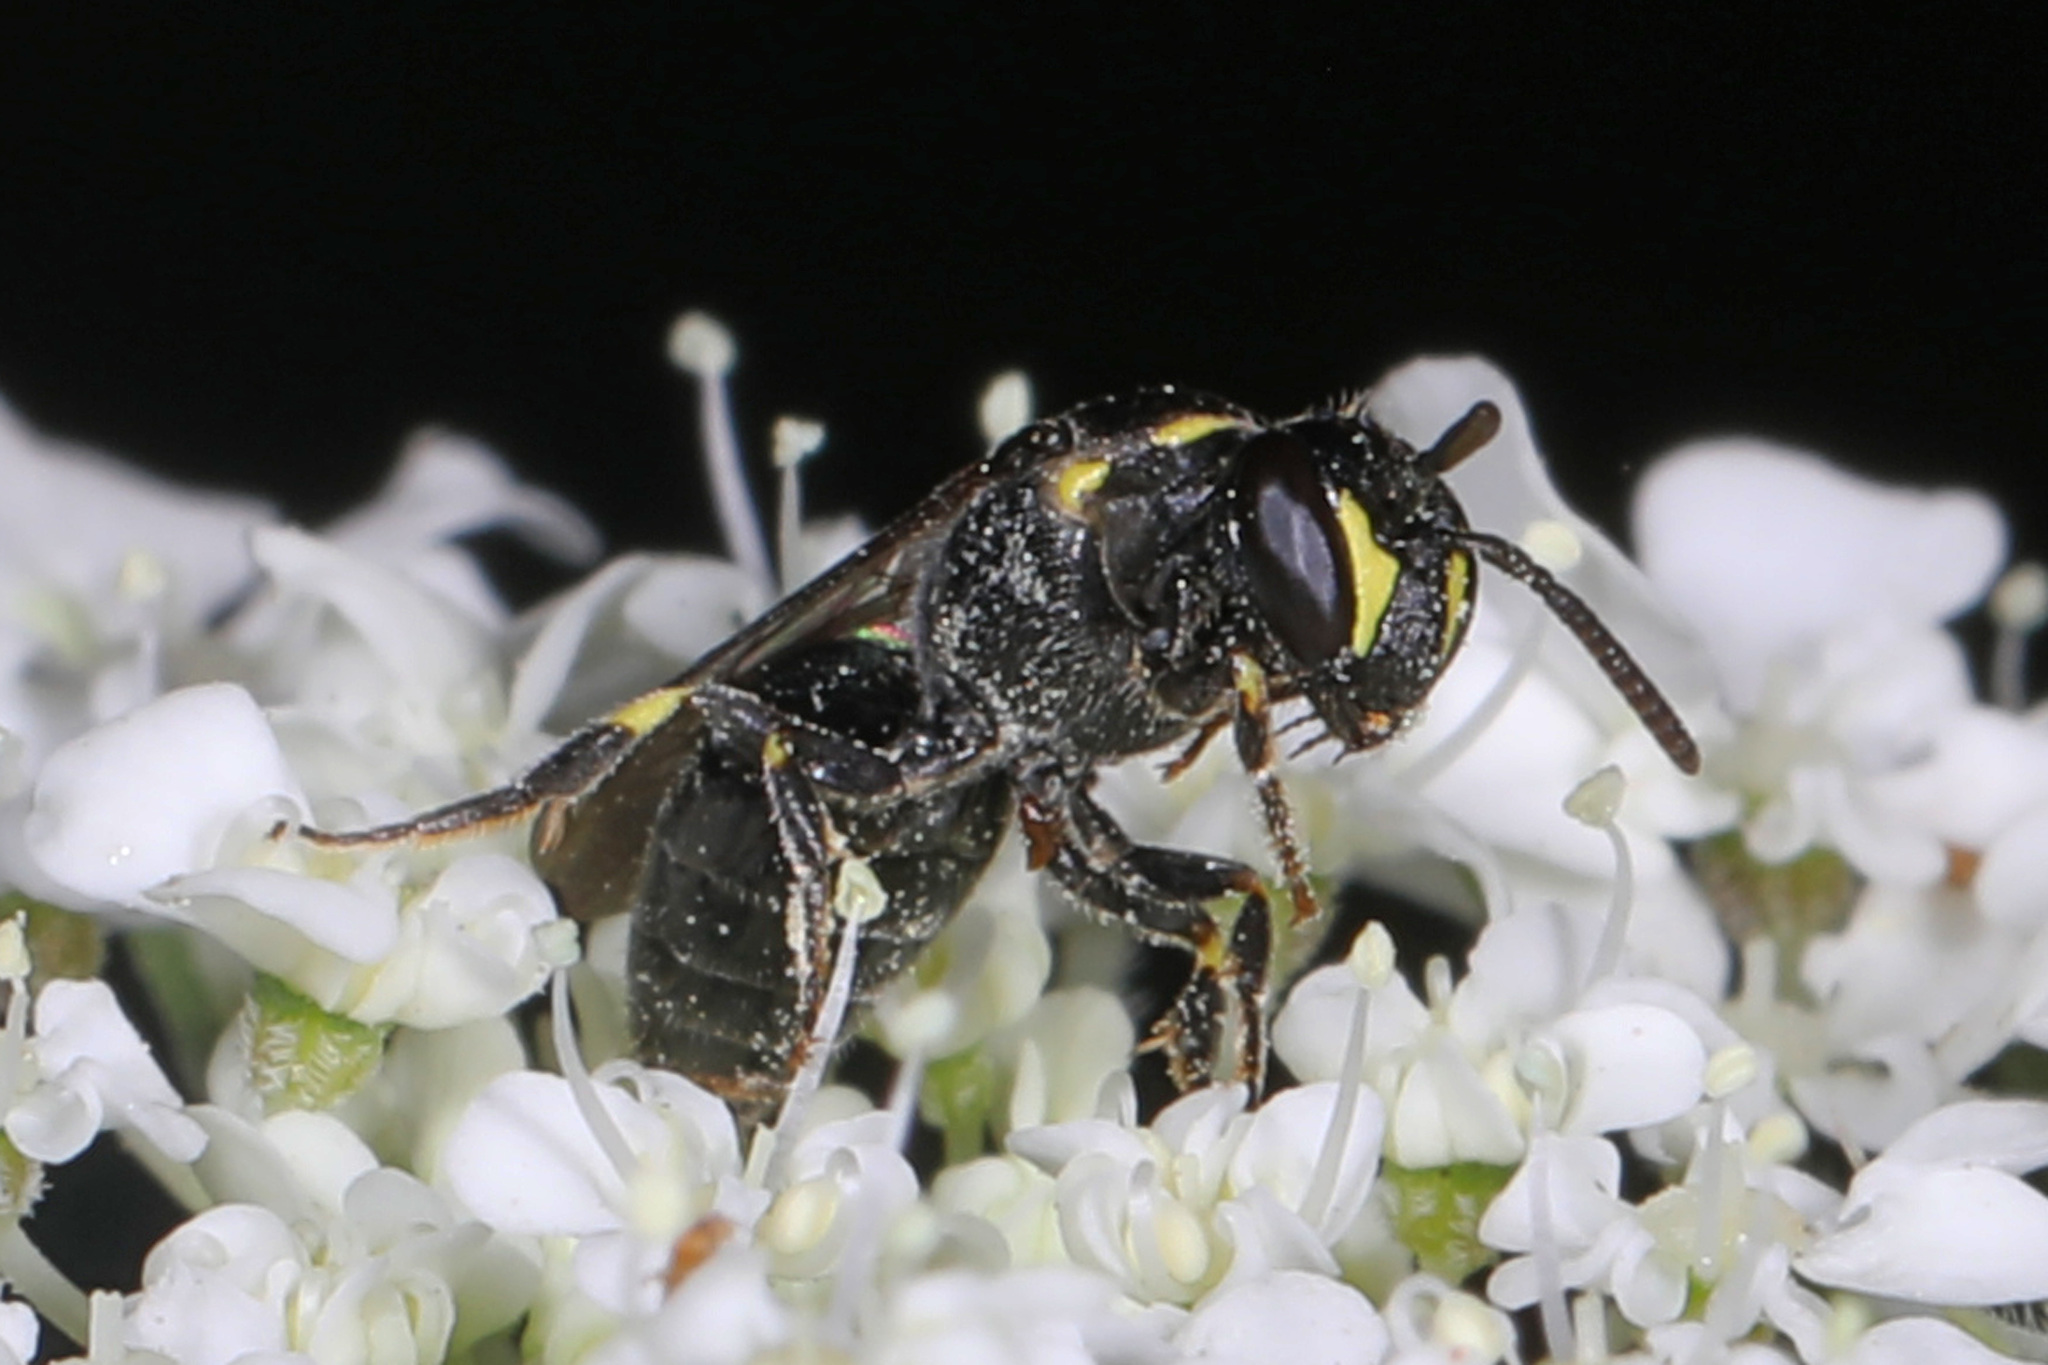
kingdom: Animalia
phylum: Arthropoda
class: Insecta
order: Hymenoptera
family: Colletidae
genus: Hylaeus
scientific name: Hylaeus modestus
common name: Yellow-faced bee
